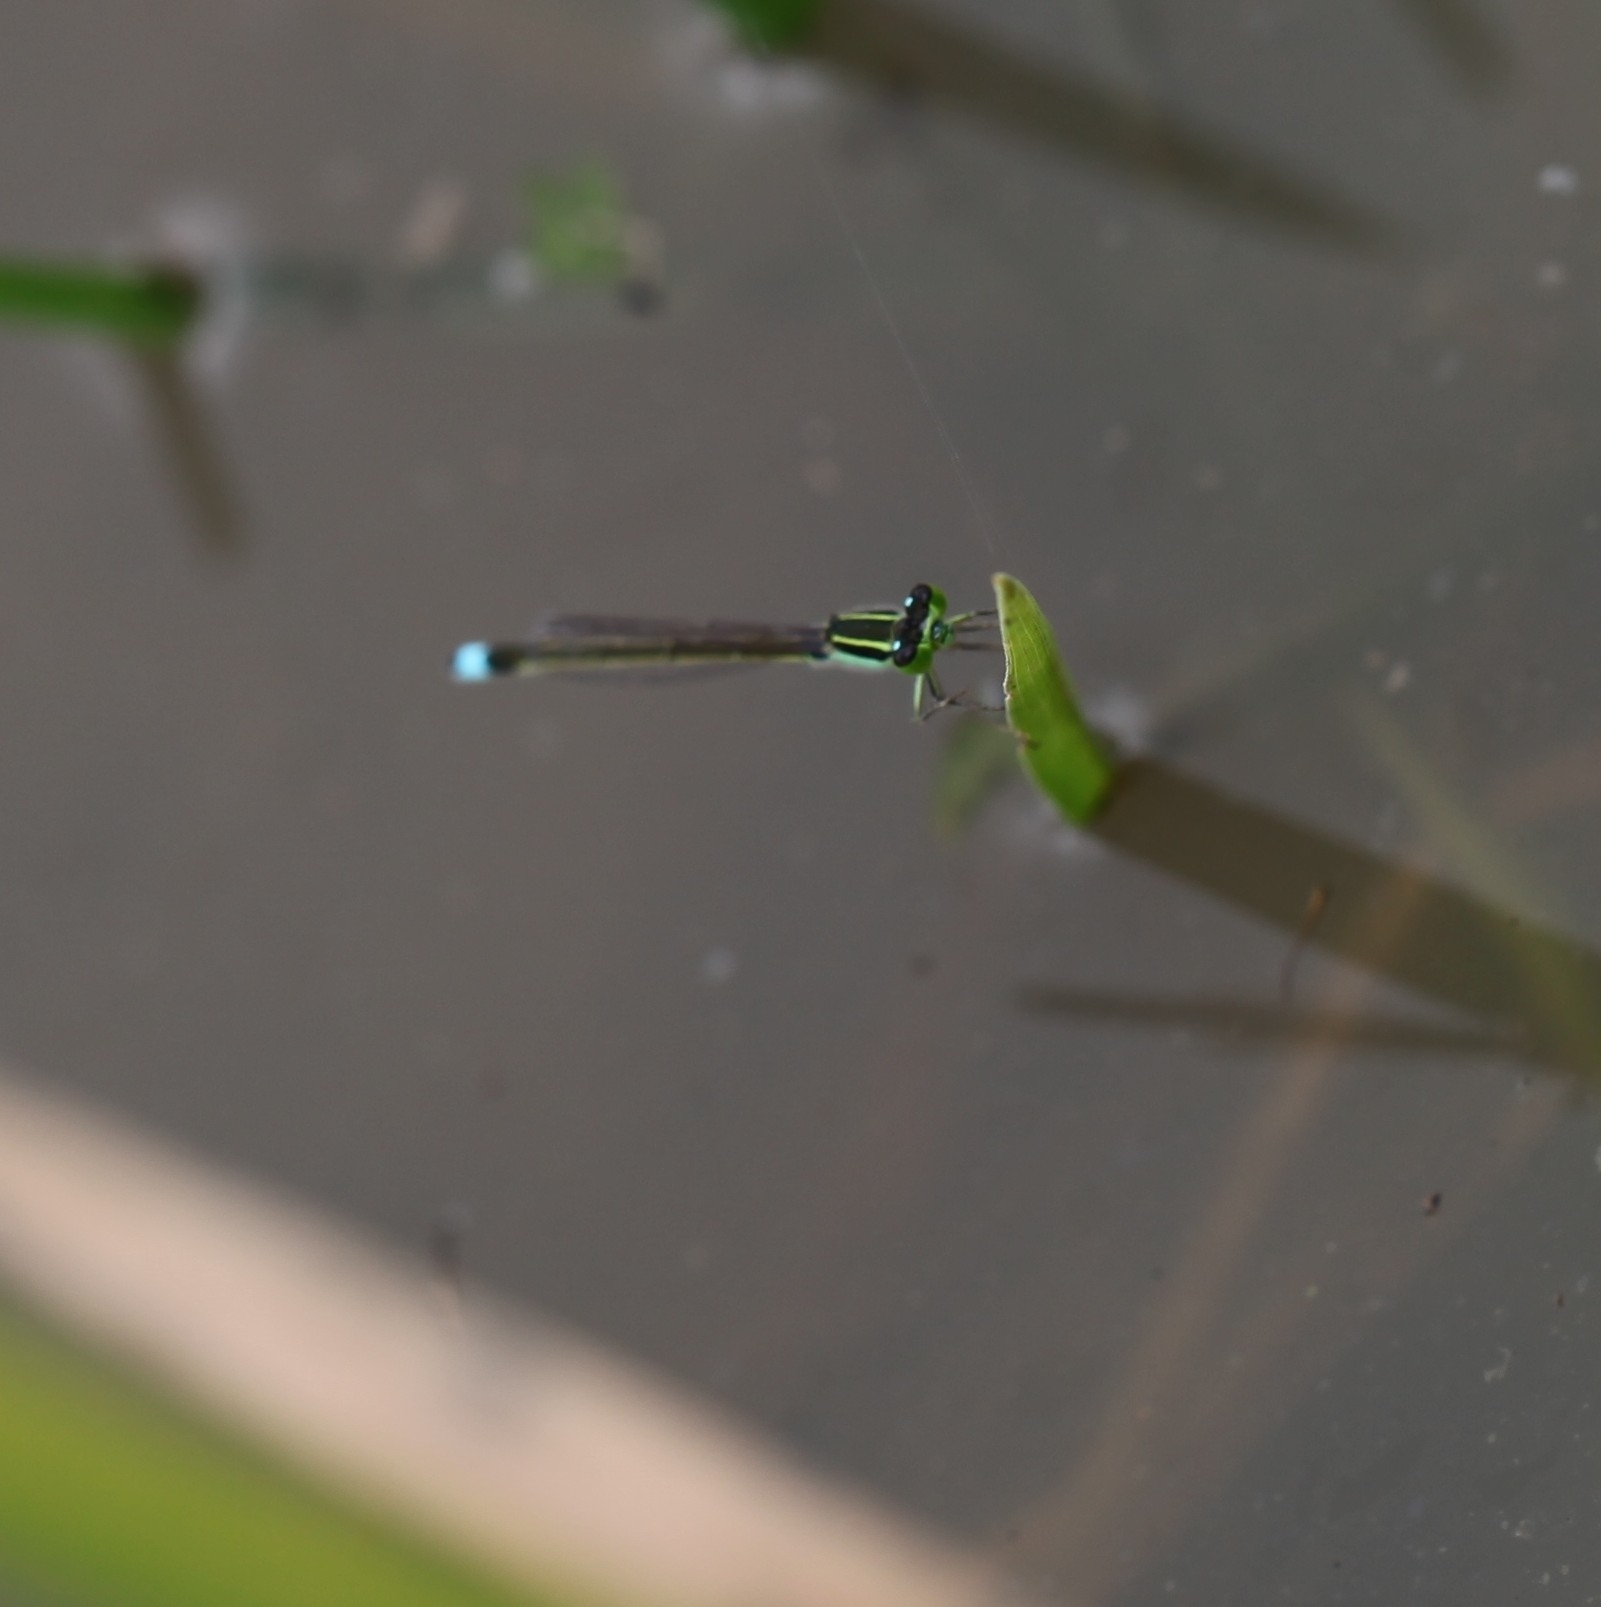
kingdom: Animalia
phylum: Arthropoda
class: Insecta
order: Odonata
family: Coenagrionidae
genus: Ischnura
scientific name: Ischnura senegalensis
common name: Tropical bluetail
